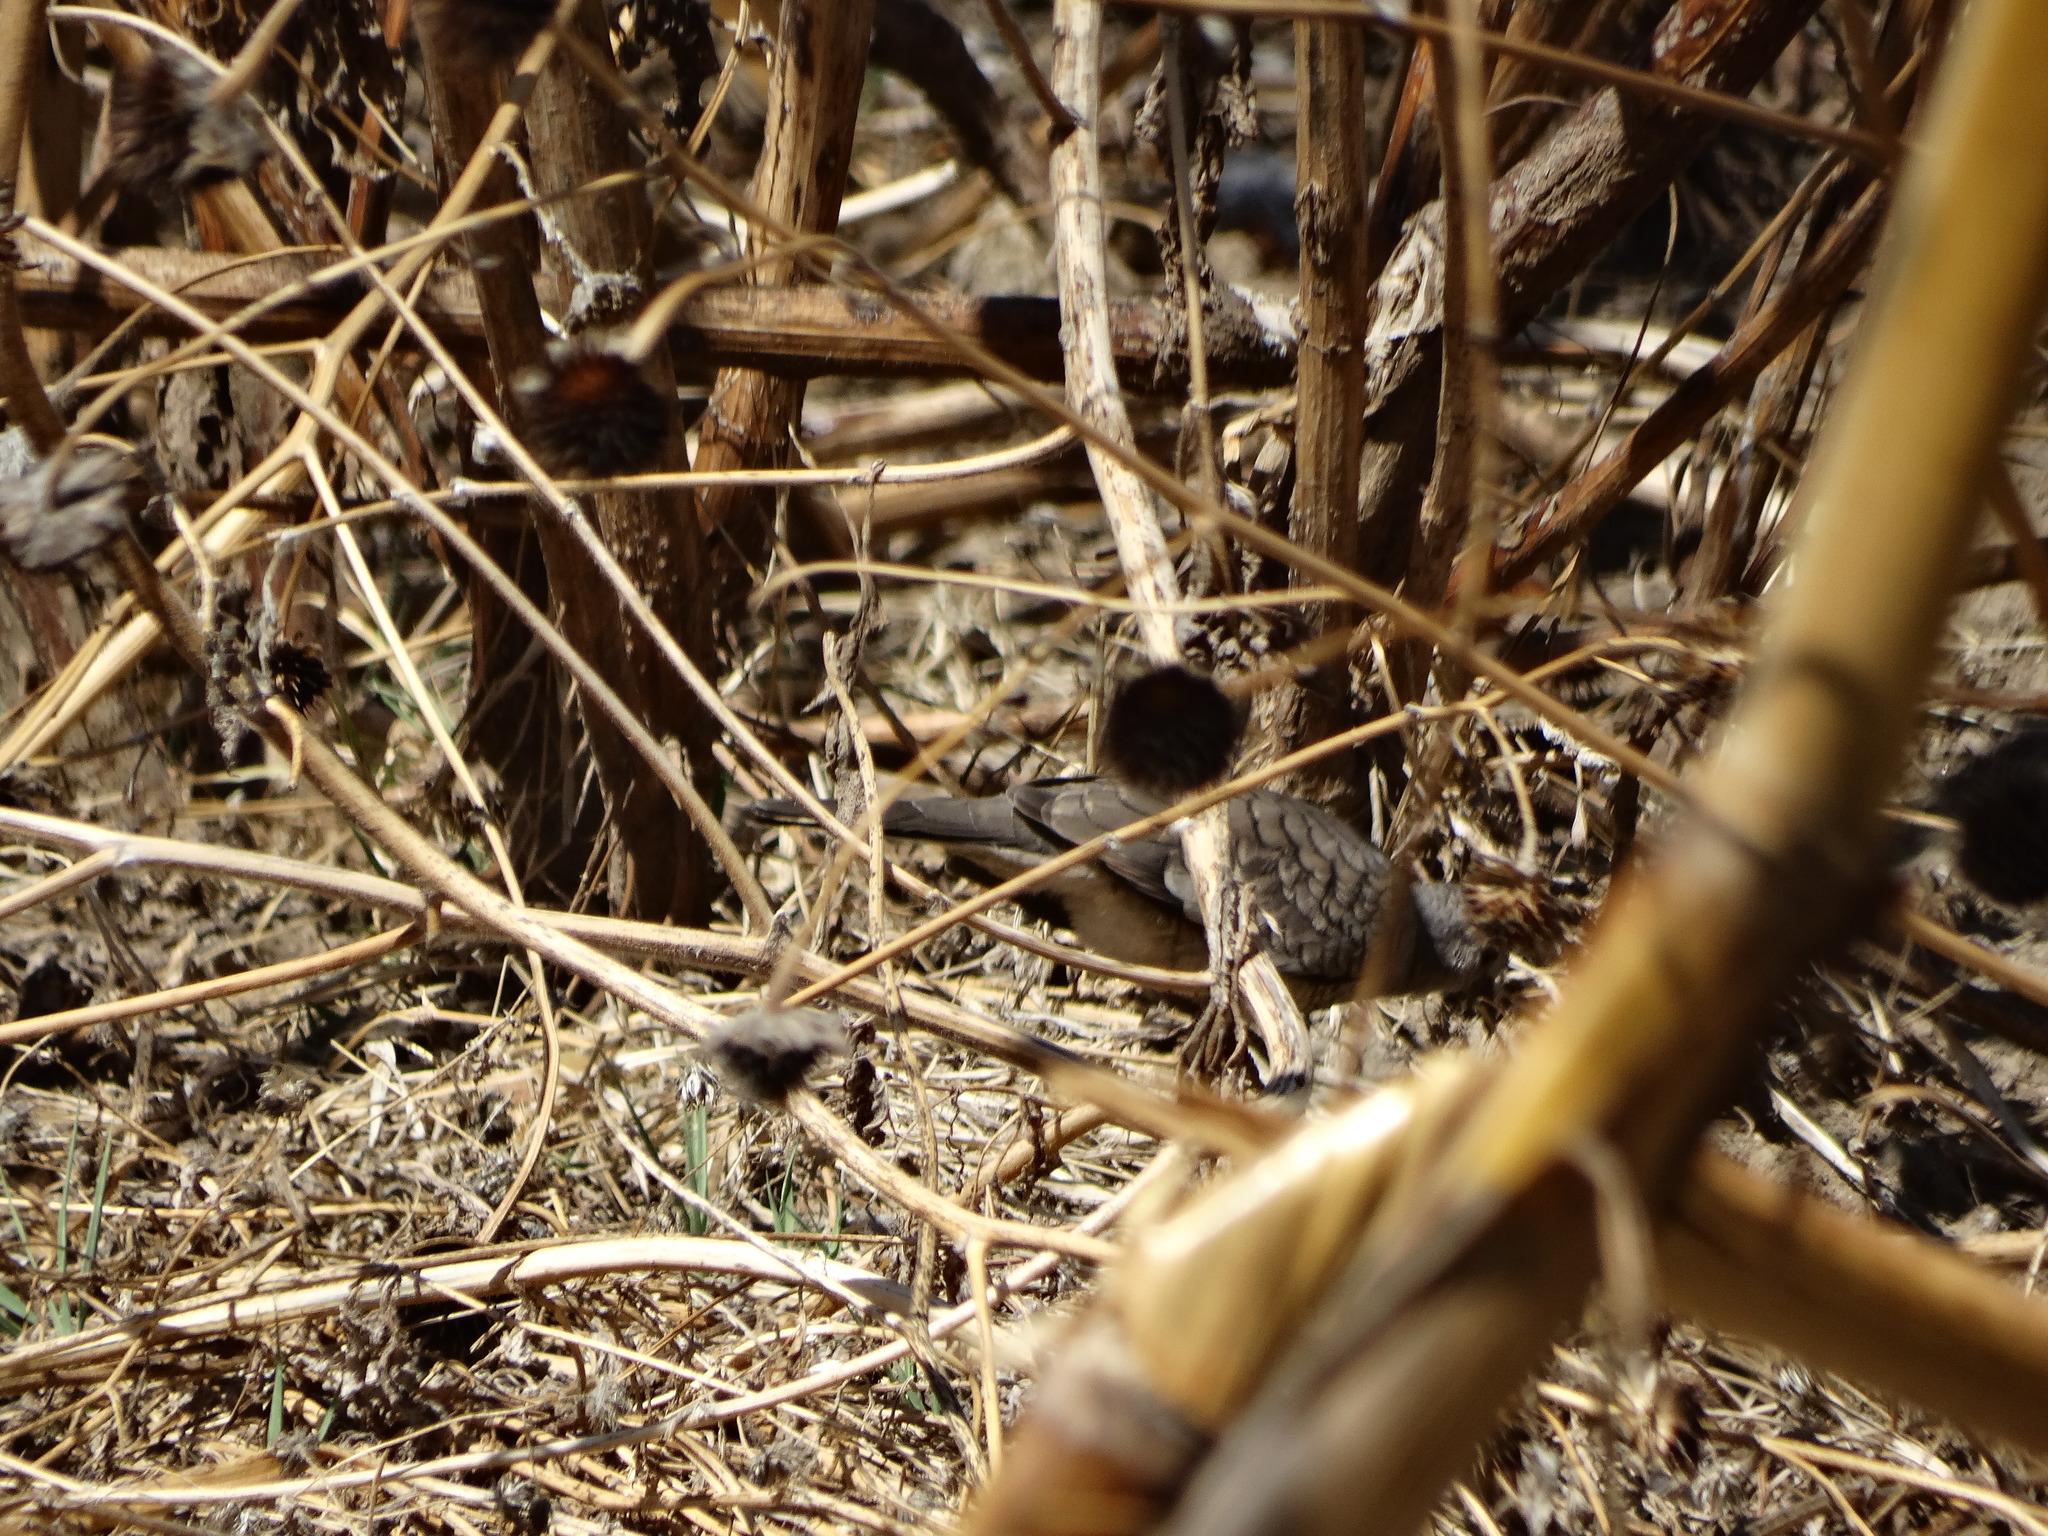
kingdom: Animalia
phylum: Chordata
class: Aves
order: Columbiformes
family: Columbidae
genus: Columbina
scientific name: Columbina inca
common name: Inca dove
